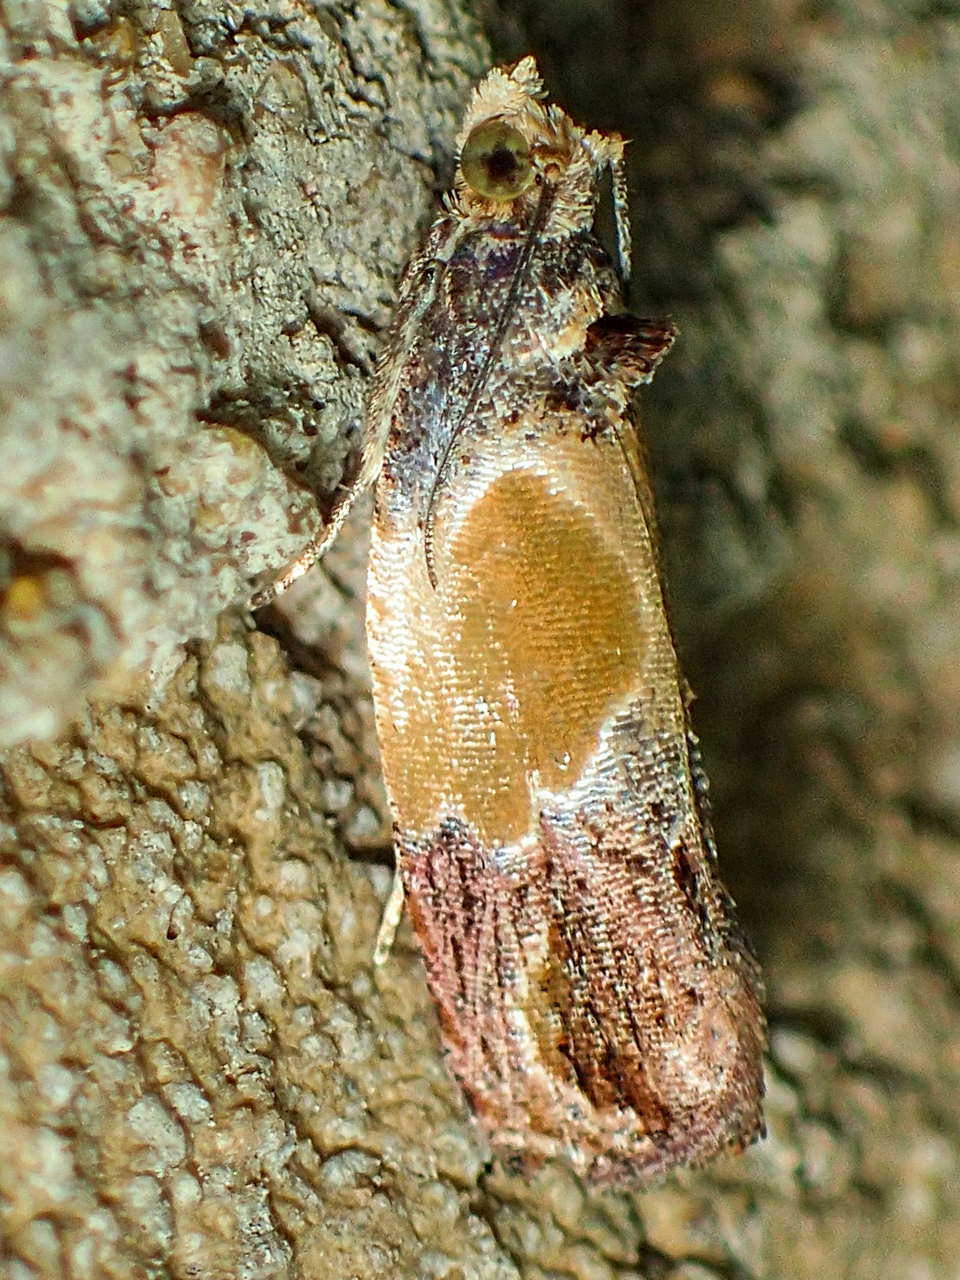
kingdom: Animalia
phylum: Arthropoda
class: Insecta
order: Lepidoptera
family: Tortricidae
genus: Eumarozia
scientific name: Eumarozia malachitana
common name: Sculptured moth
